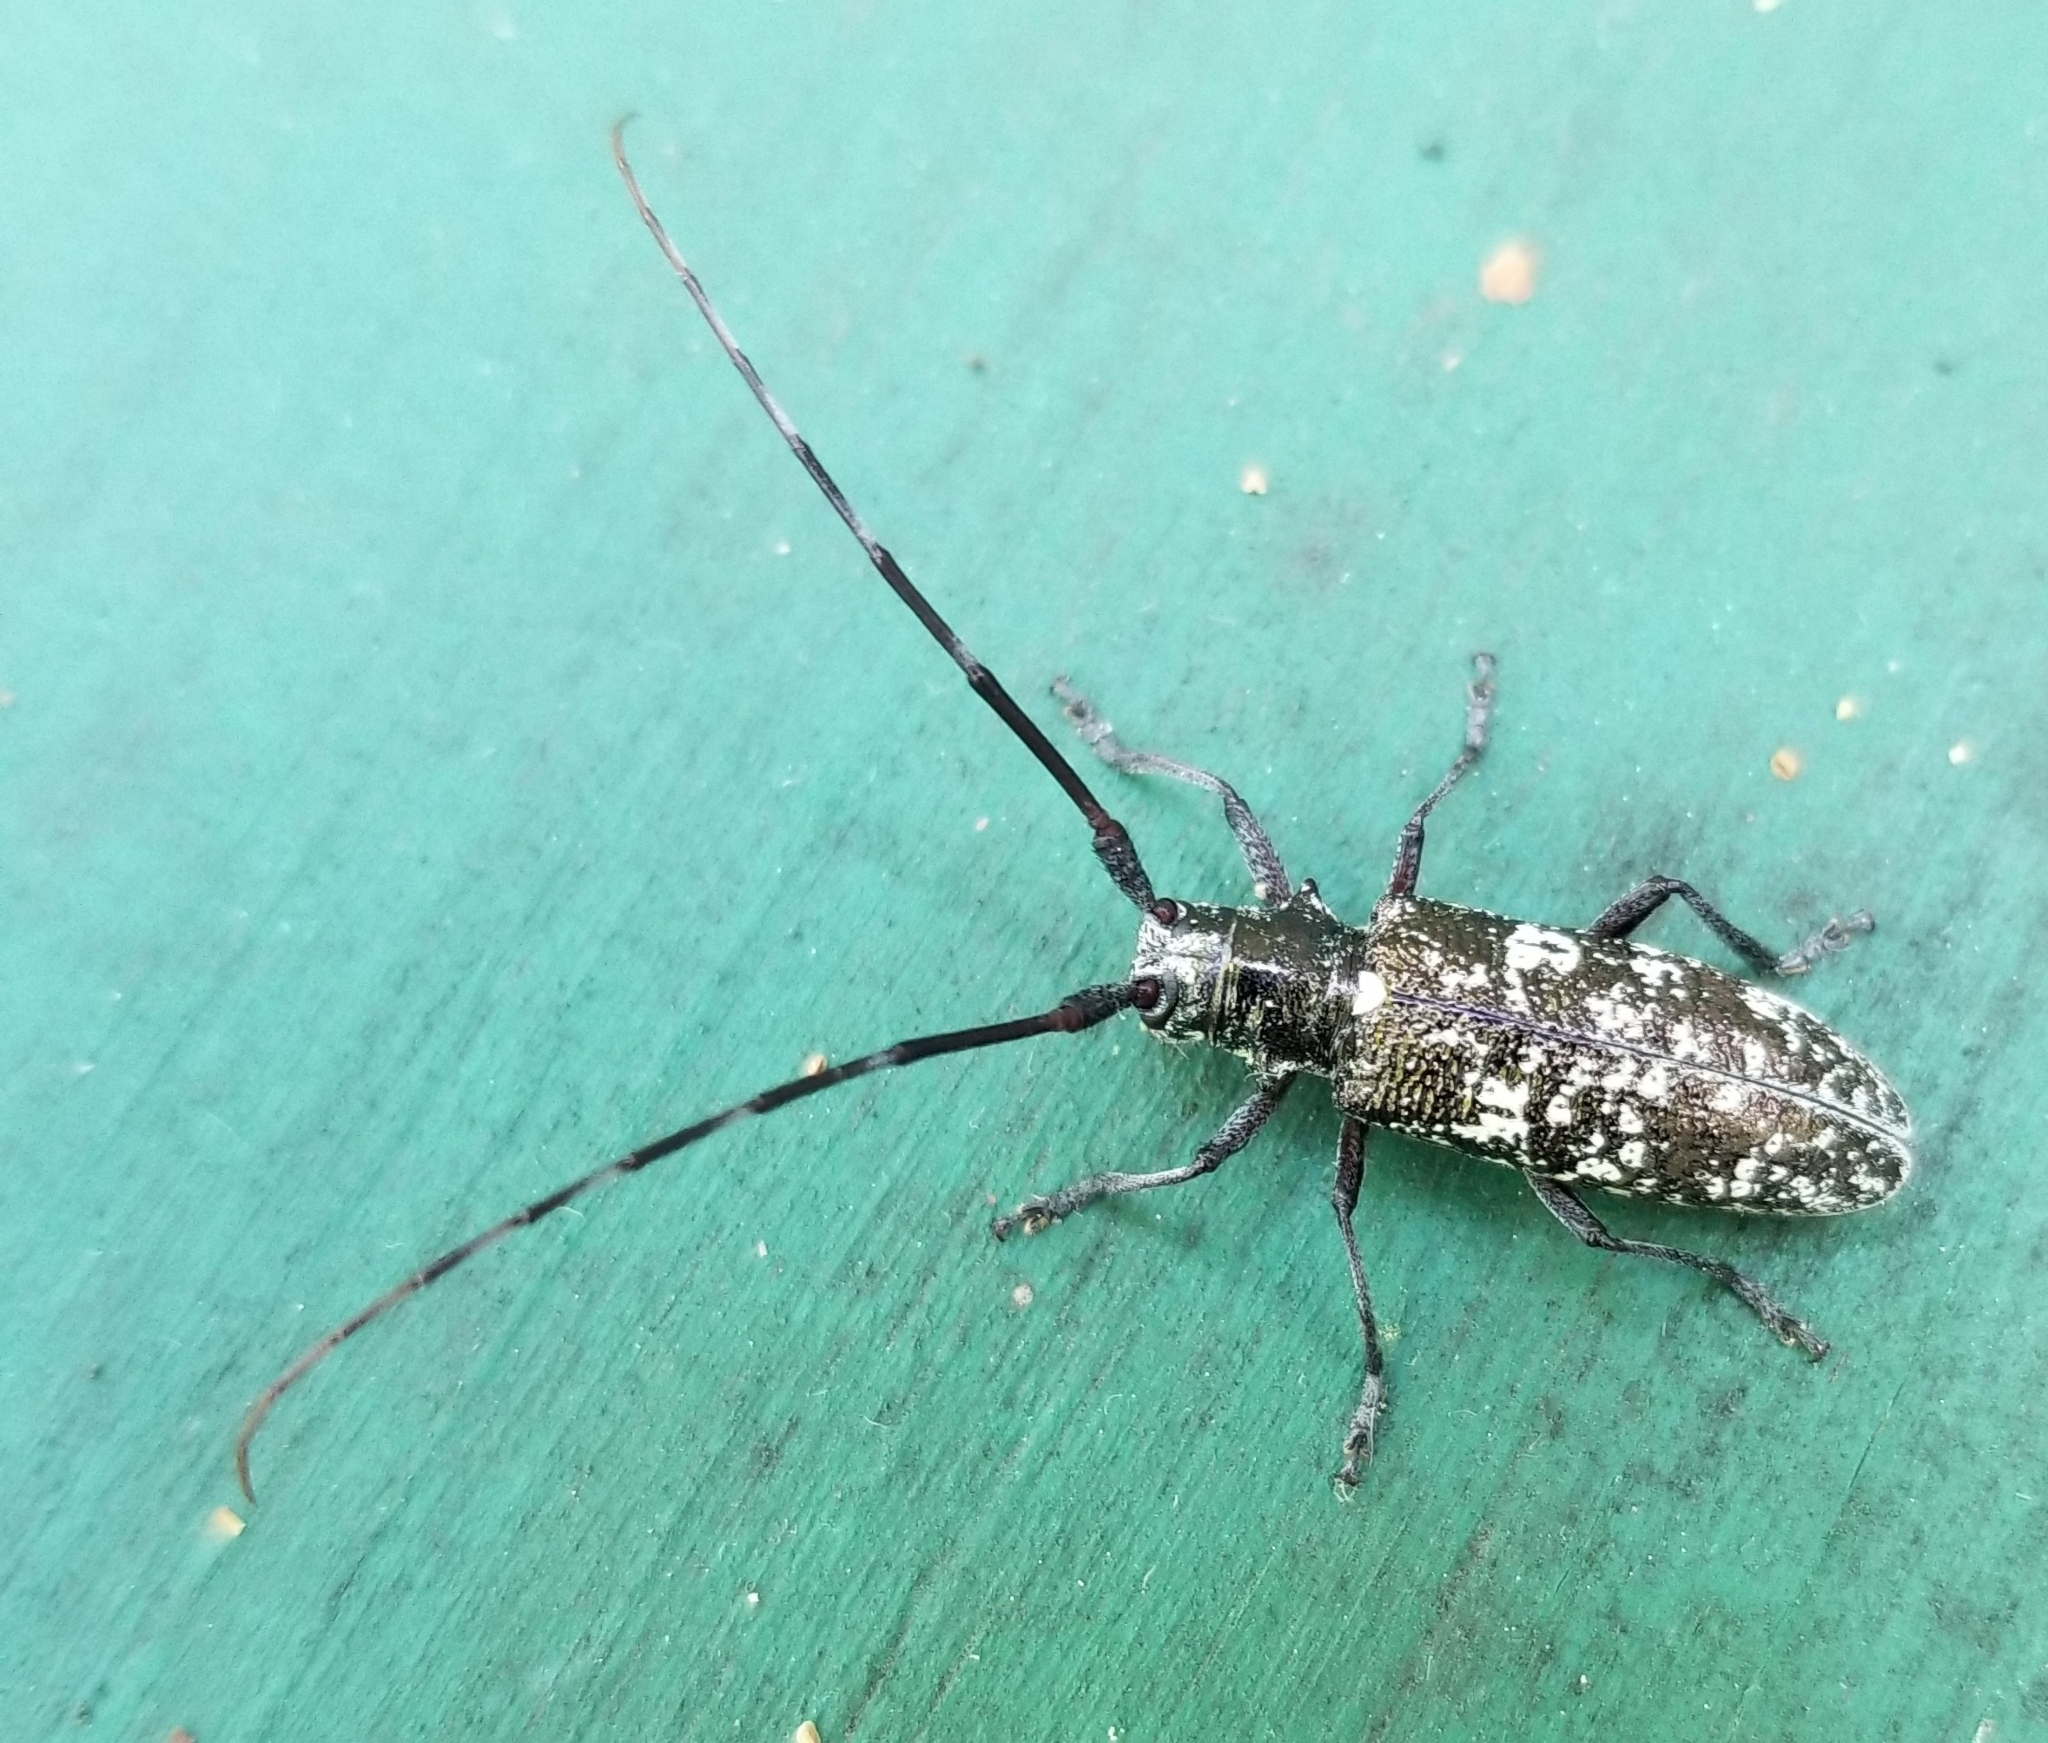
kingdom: Animalia
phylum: Arthropoda
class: Insecta
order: Coleoptera
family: Cerambycidae
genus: Monochamus
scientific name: Monochamus scutellatus
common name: White-spotted sawyer beetle
